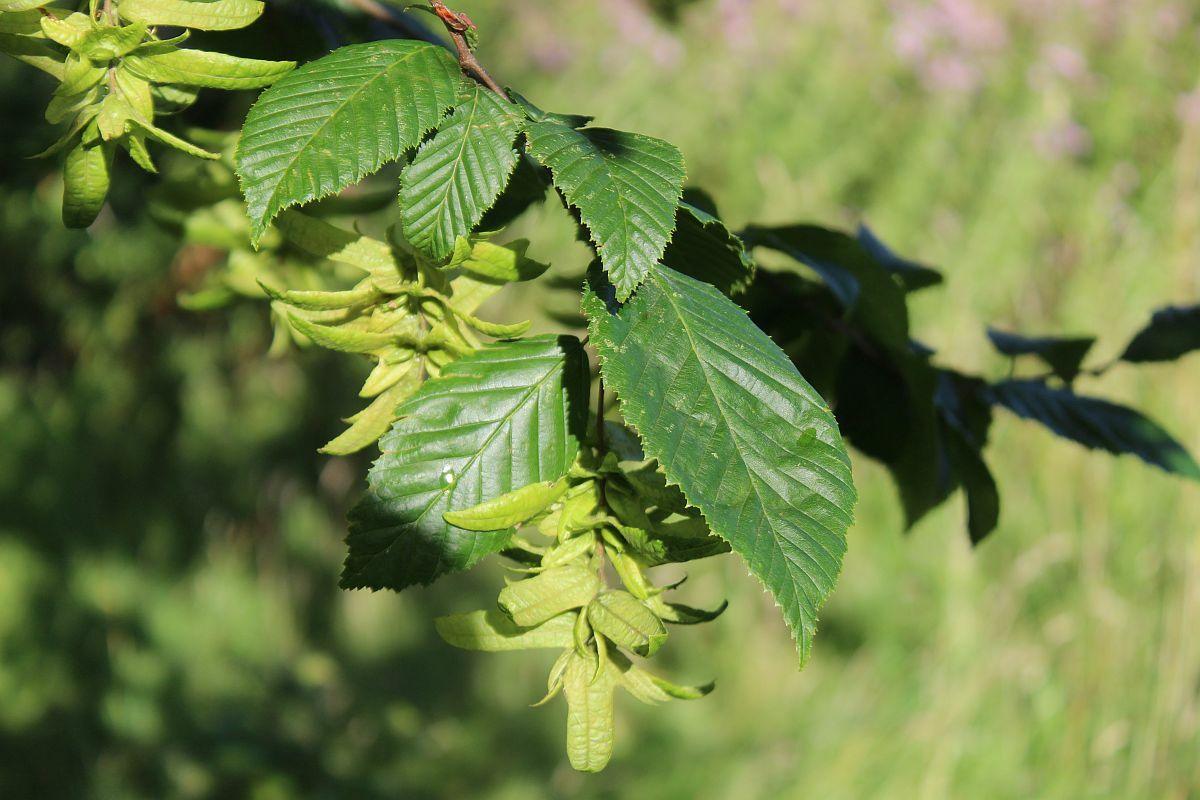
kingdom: Plantae
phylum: Tracheophyta
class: Magnoliopsida
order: Fagales
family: Betulaceae
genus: Carpinus
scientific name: Carpinus betulus
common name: Hornbeam
